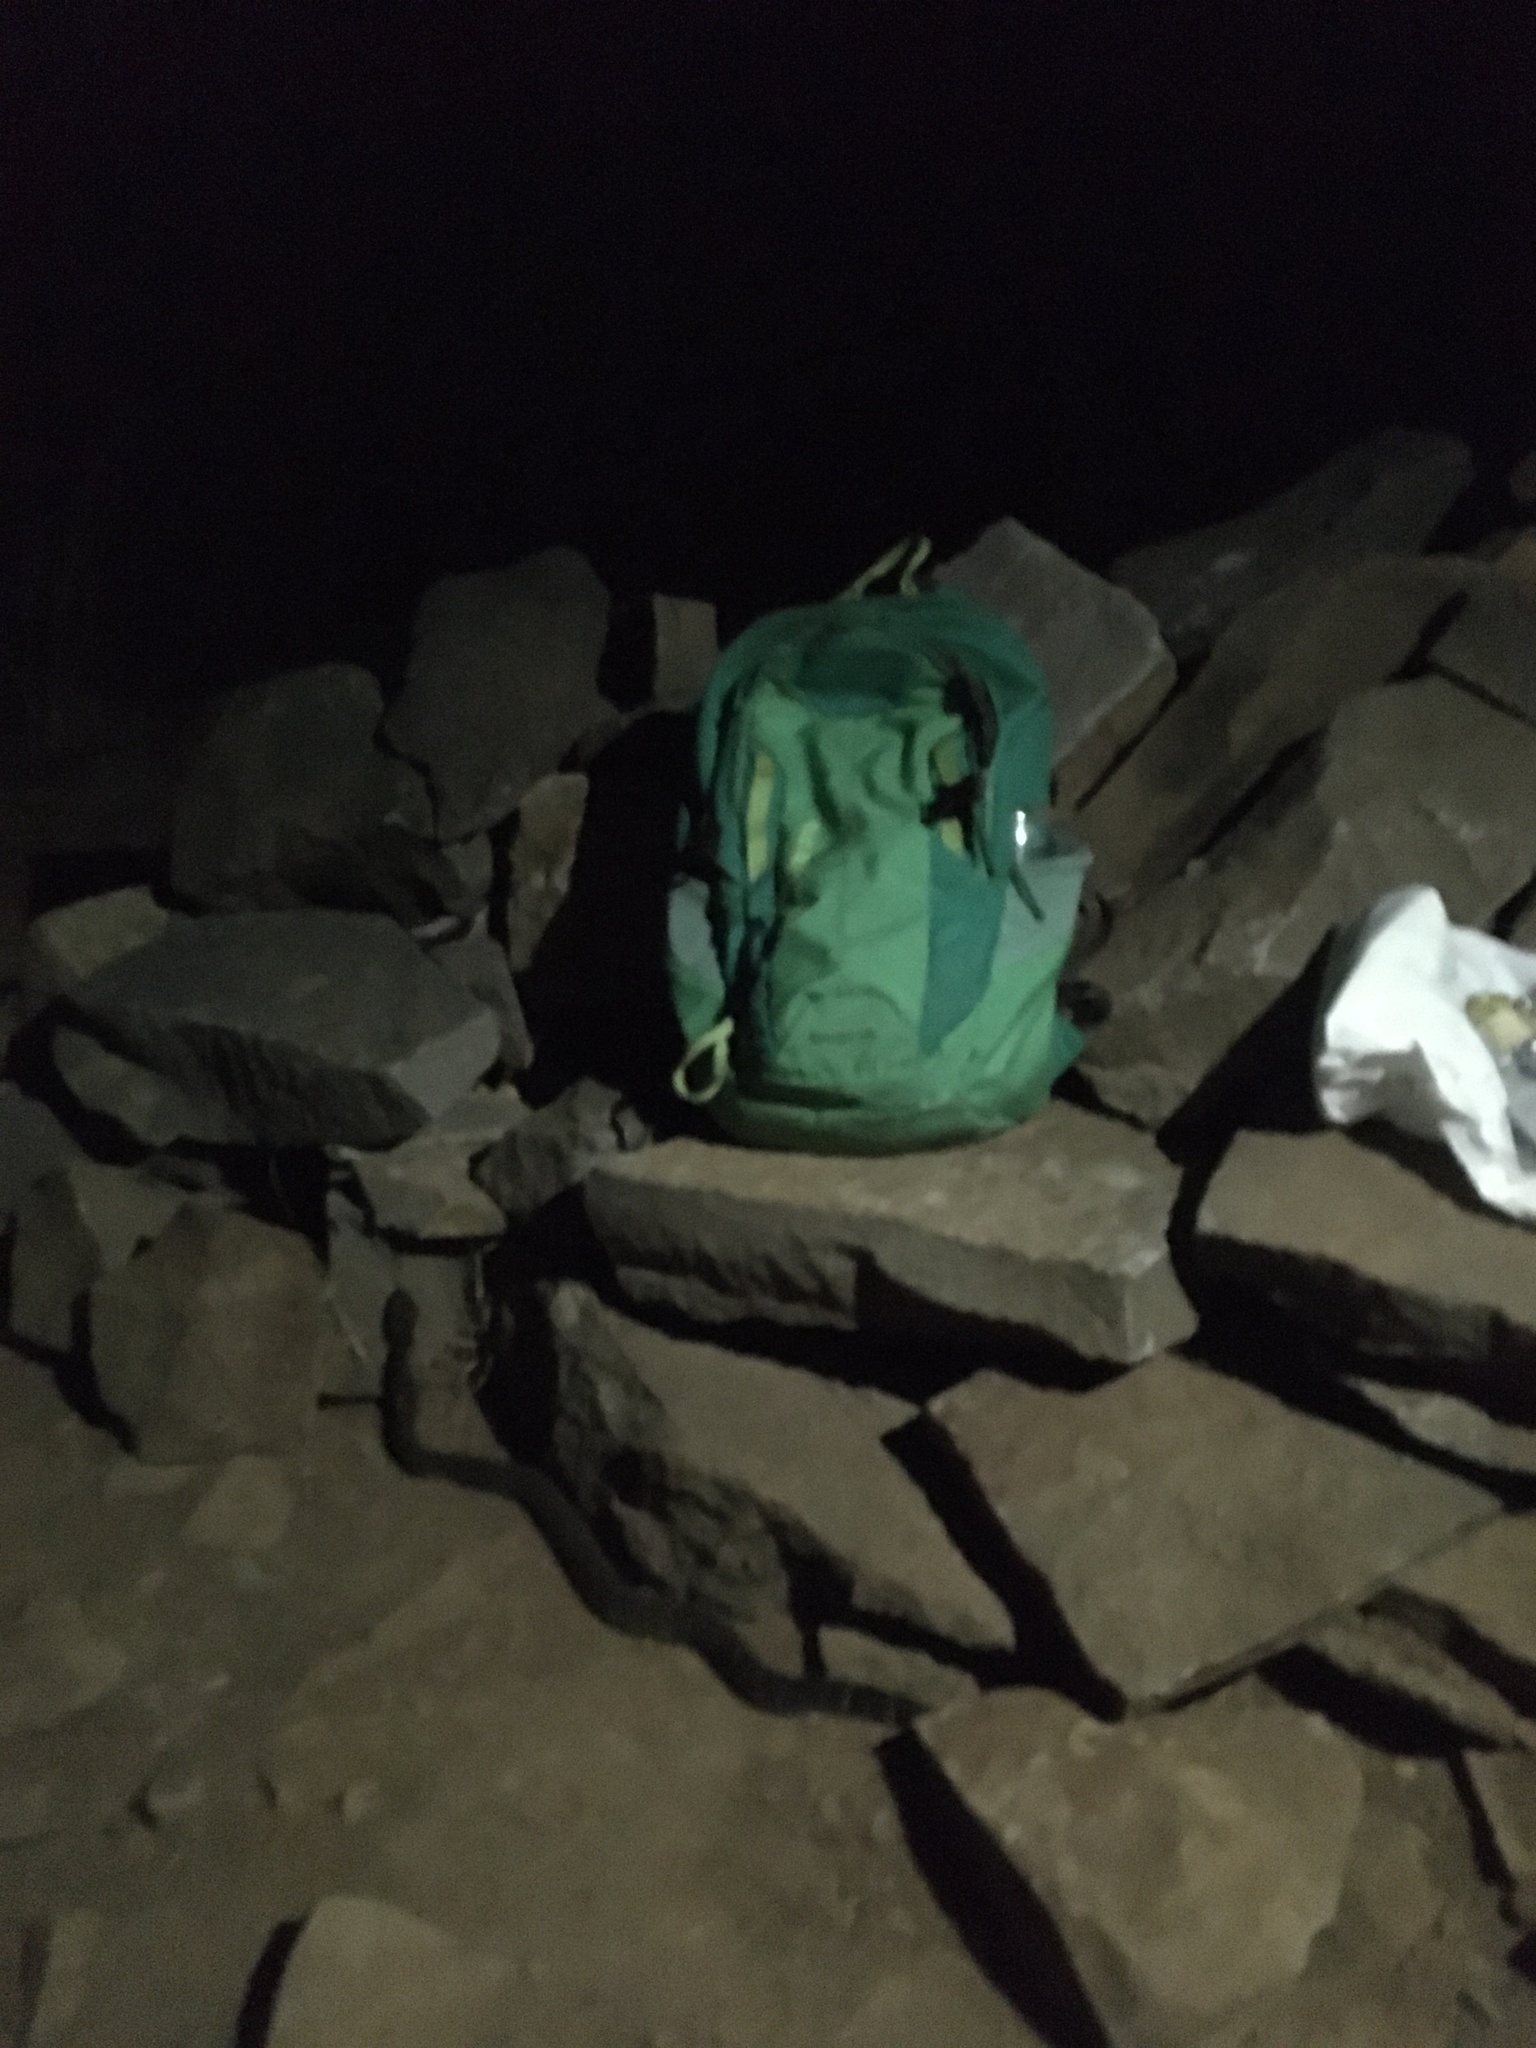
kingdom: Animalia
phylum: Chordata
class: Squamata
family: Viperidae
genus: Crotalus
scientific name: Crotalus oreganus
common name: Abyssus
